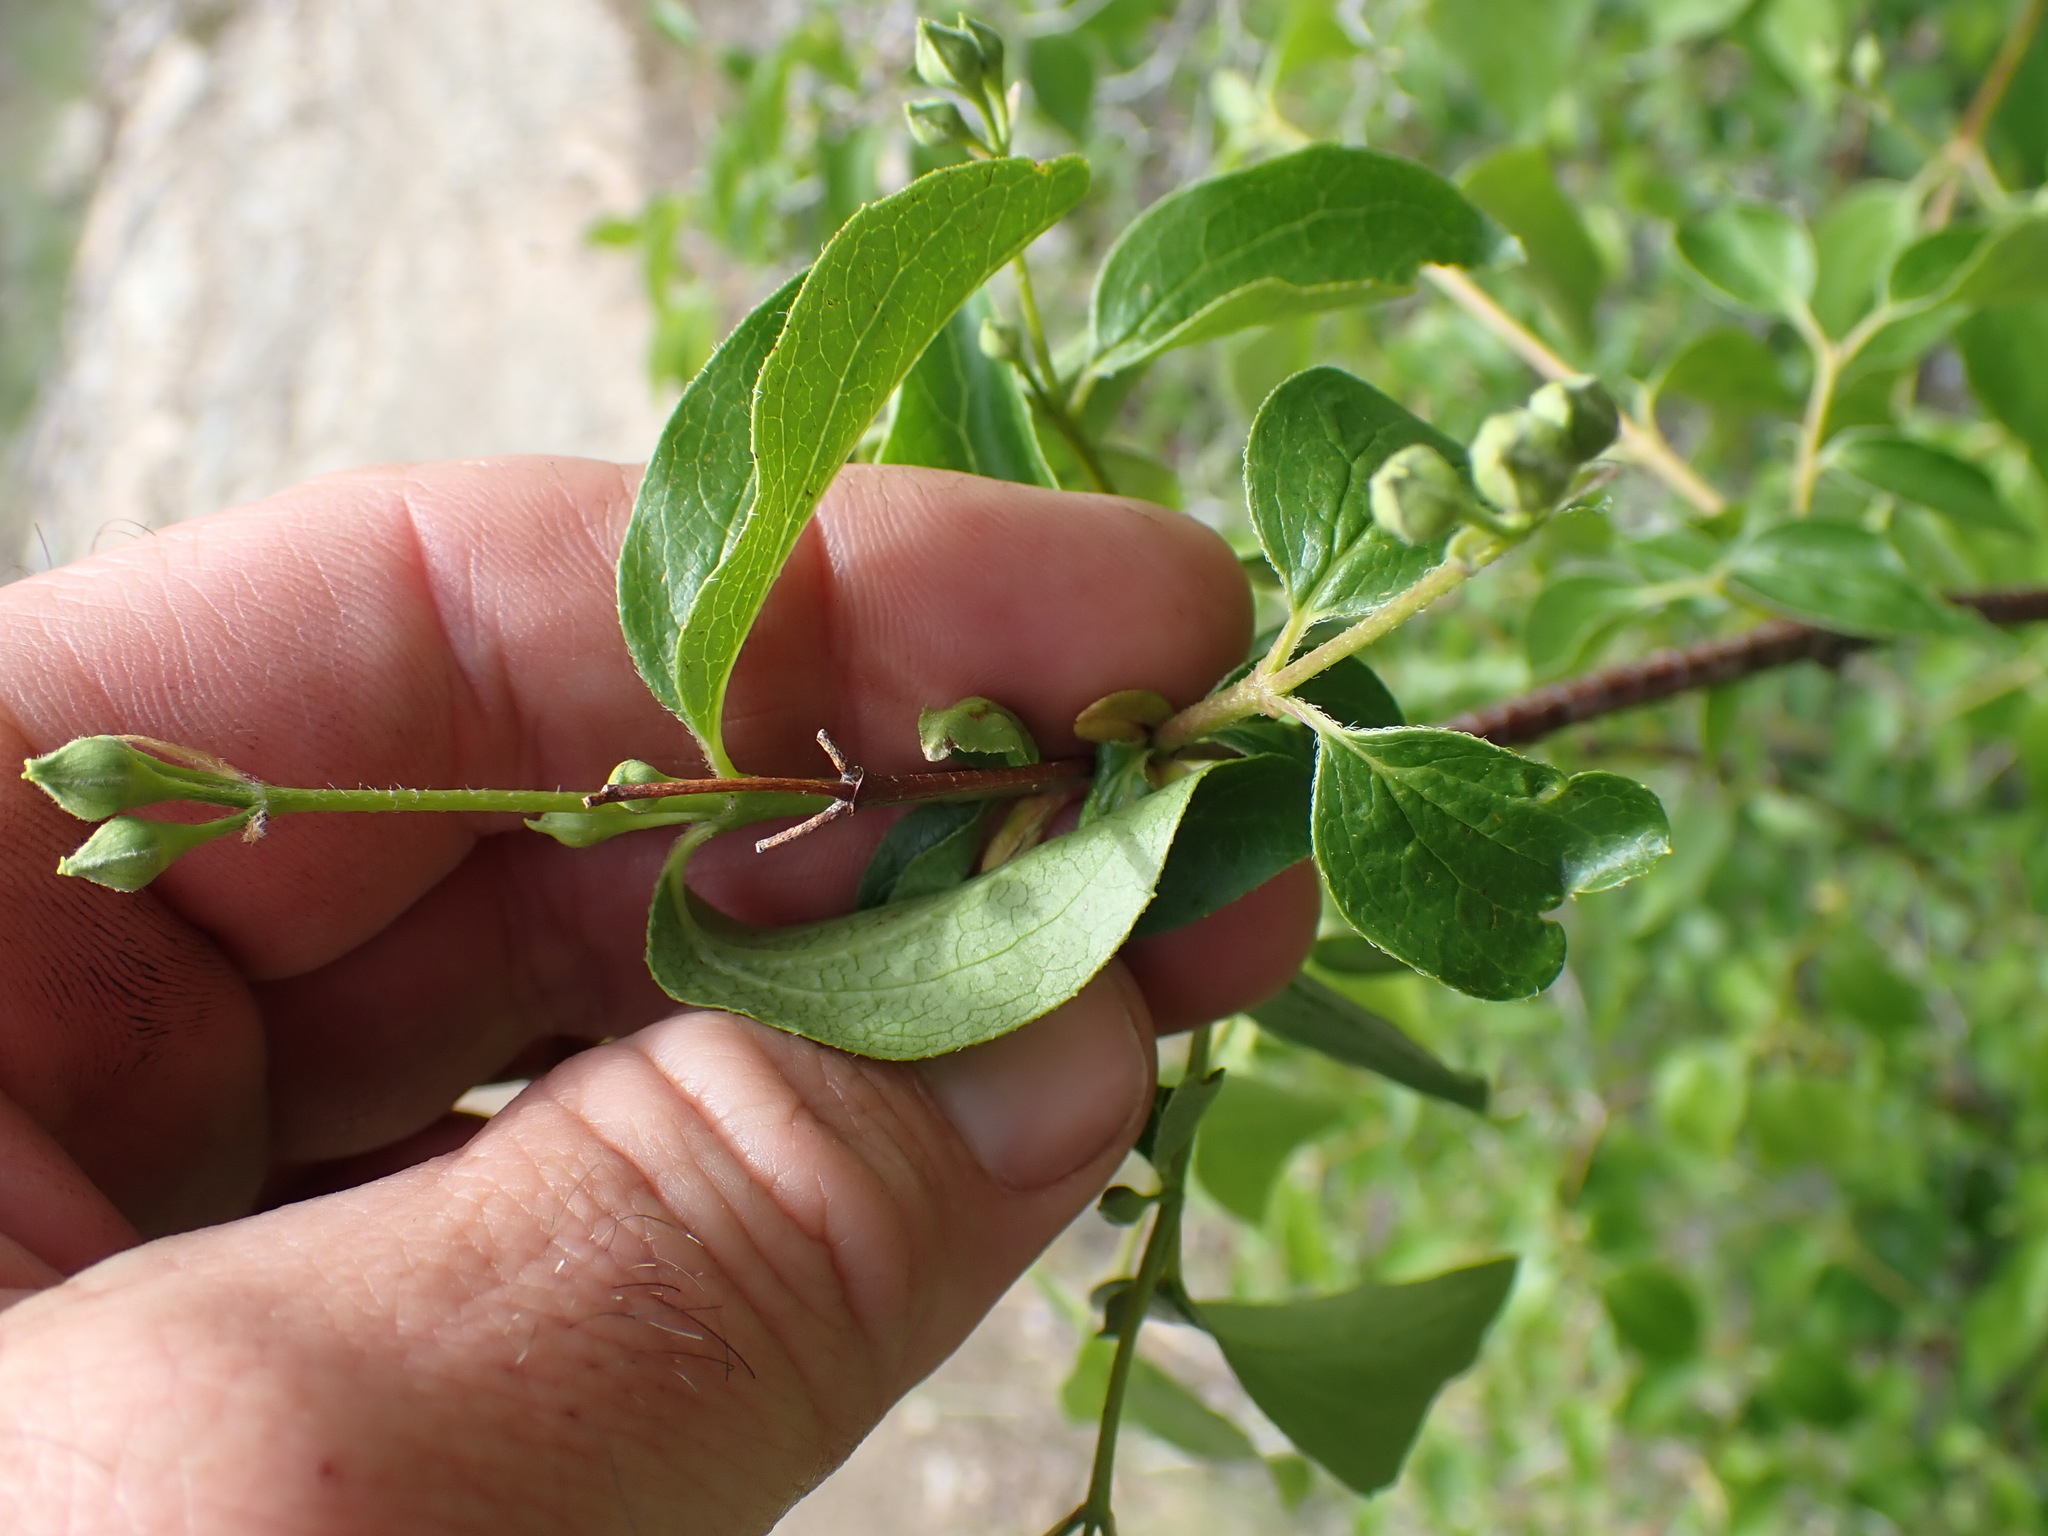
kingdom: Plantae
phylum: Tracheophyta
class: Magnoliopsida
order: Cornales
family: Hydrangeaceae
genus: Philadelphus
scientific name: Philadelphus lewisii
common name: Lewis's mock orange
